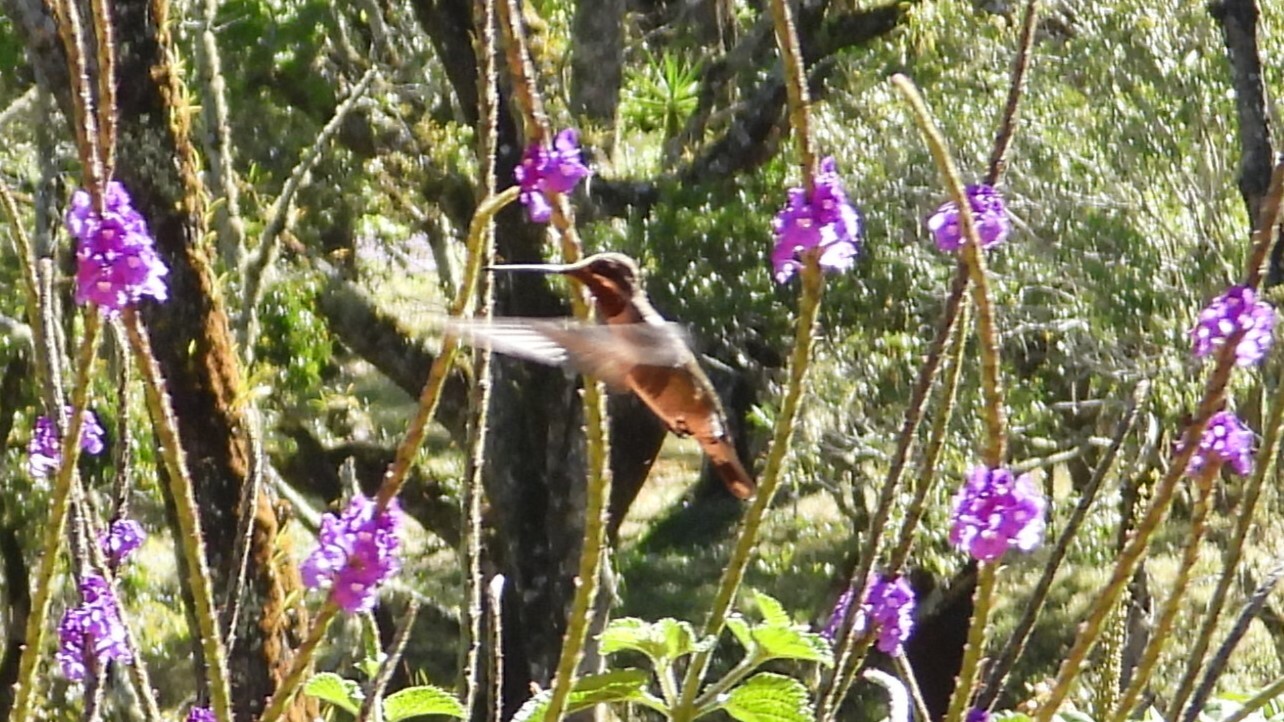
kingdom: Animalia
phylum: Chordata
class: Aves
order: Apodiformes
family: Trochilidae
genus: Heliomaster
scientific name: Heliomaster constantii
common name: Plain-capped starthroat
